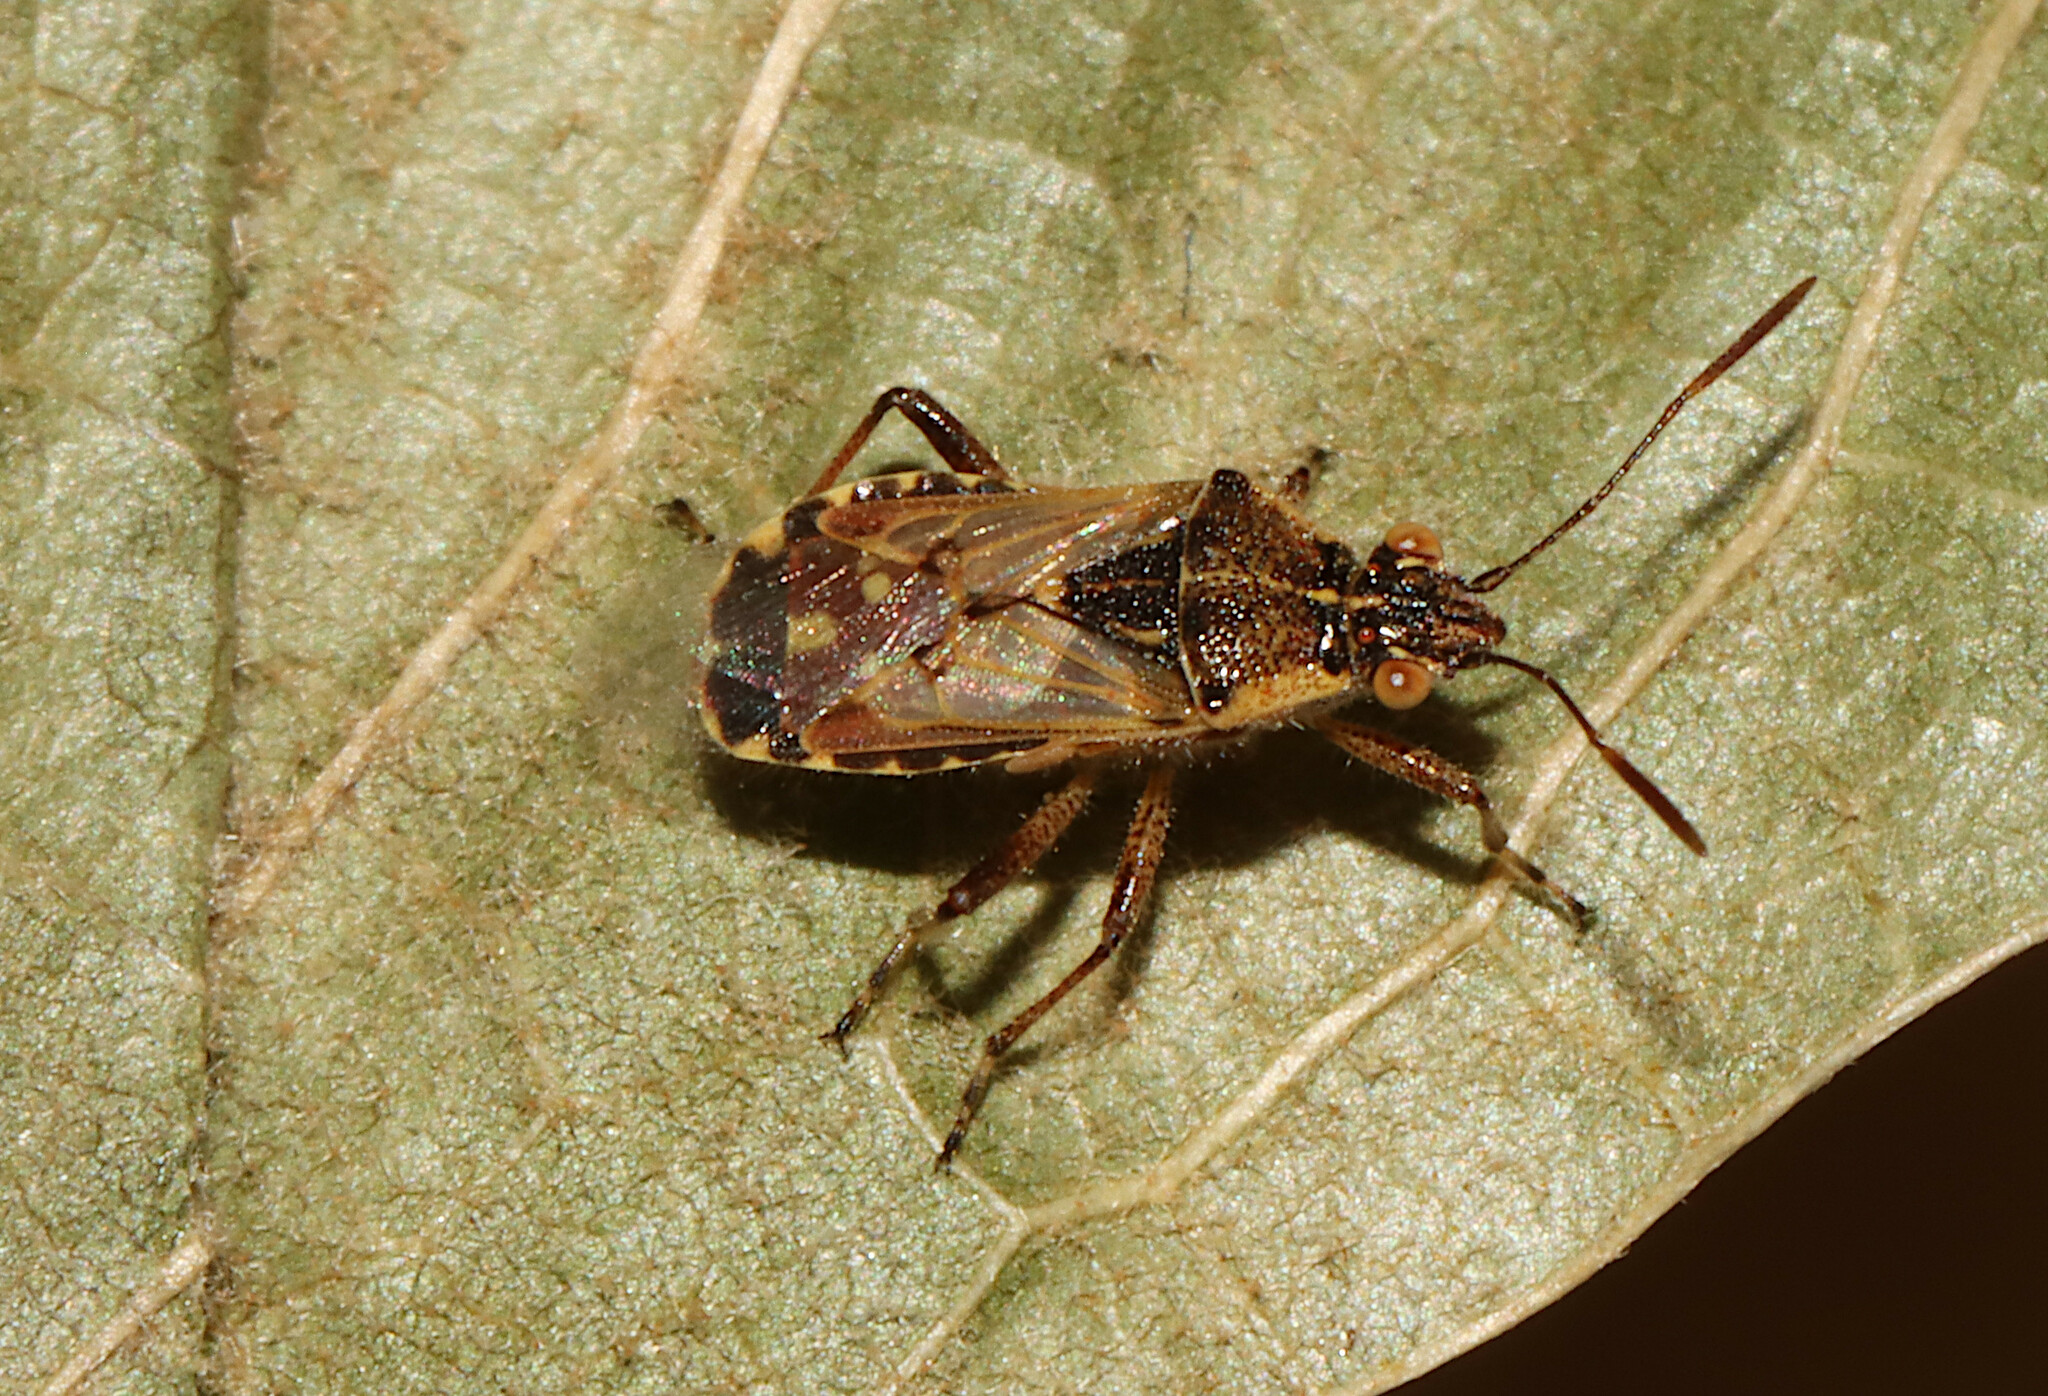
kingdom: Animalia
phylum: Arthropoda
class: Insecta
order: Hemiptera
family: Rhopalidae
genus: Liorhyssus
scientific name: Liorhyssus hyalinus
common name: Scentless plant bug
